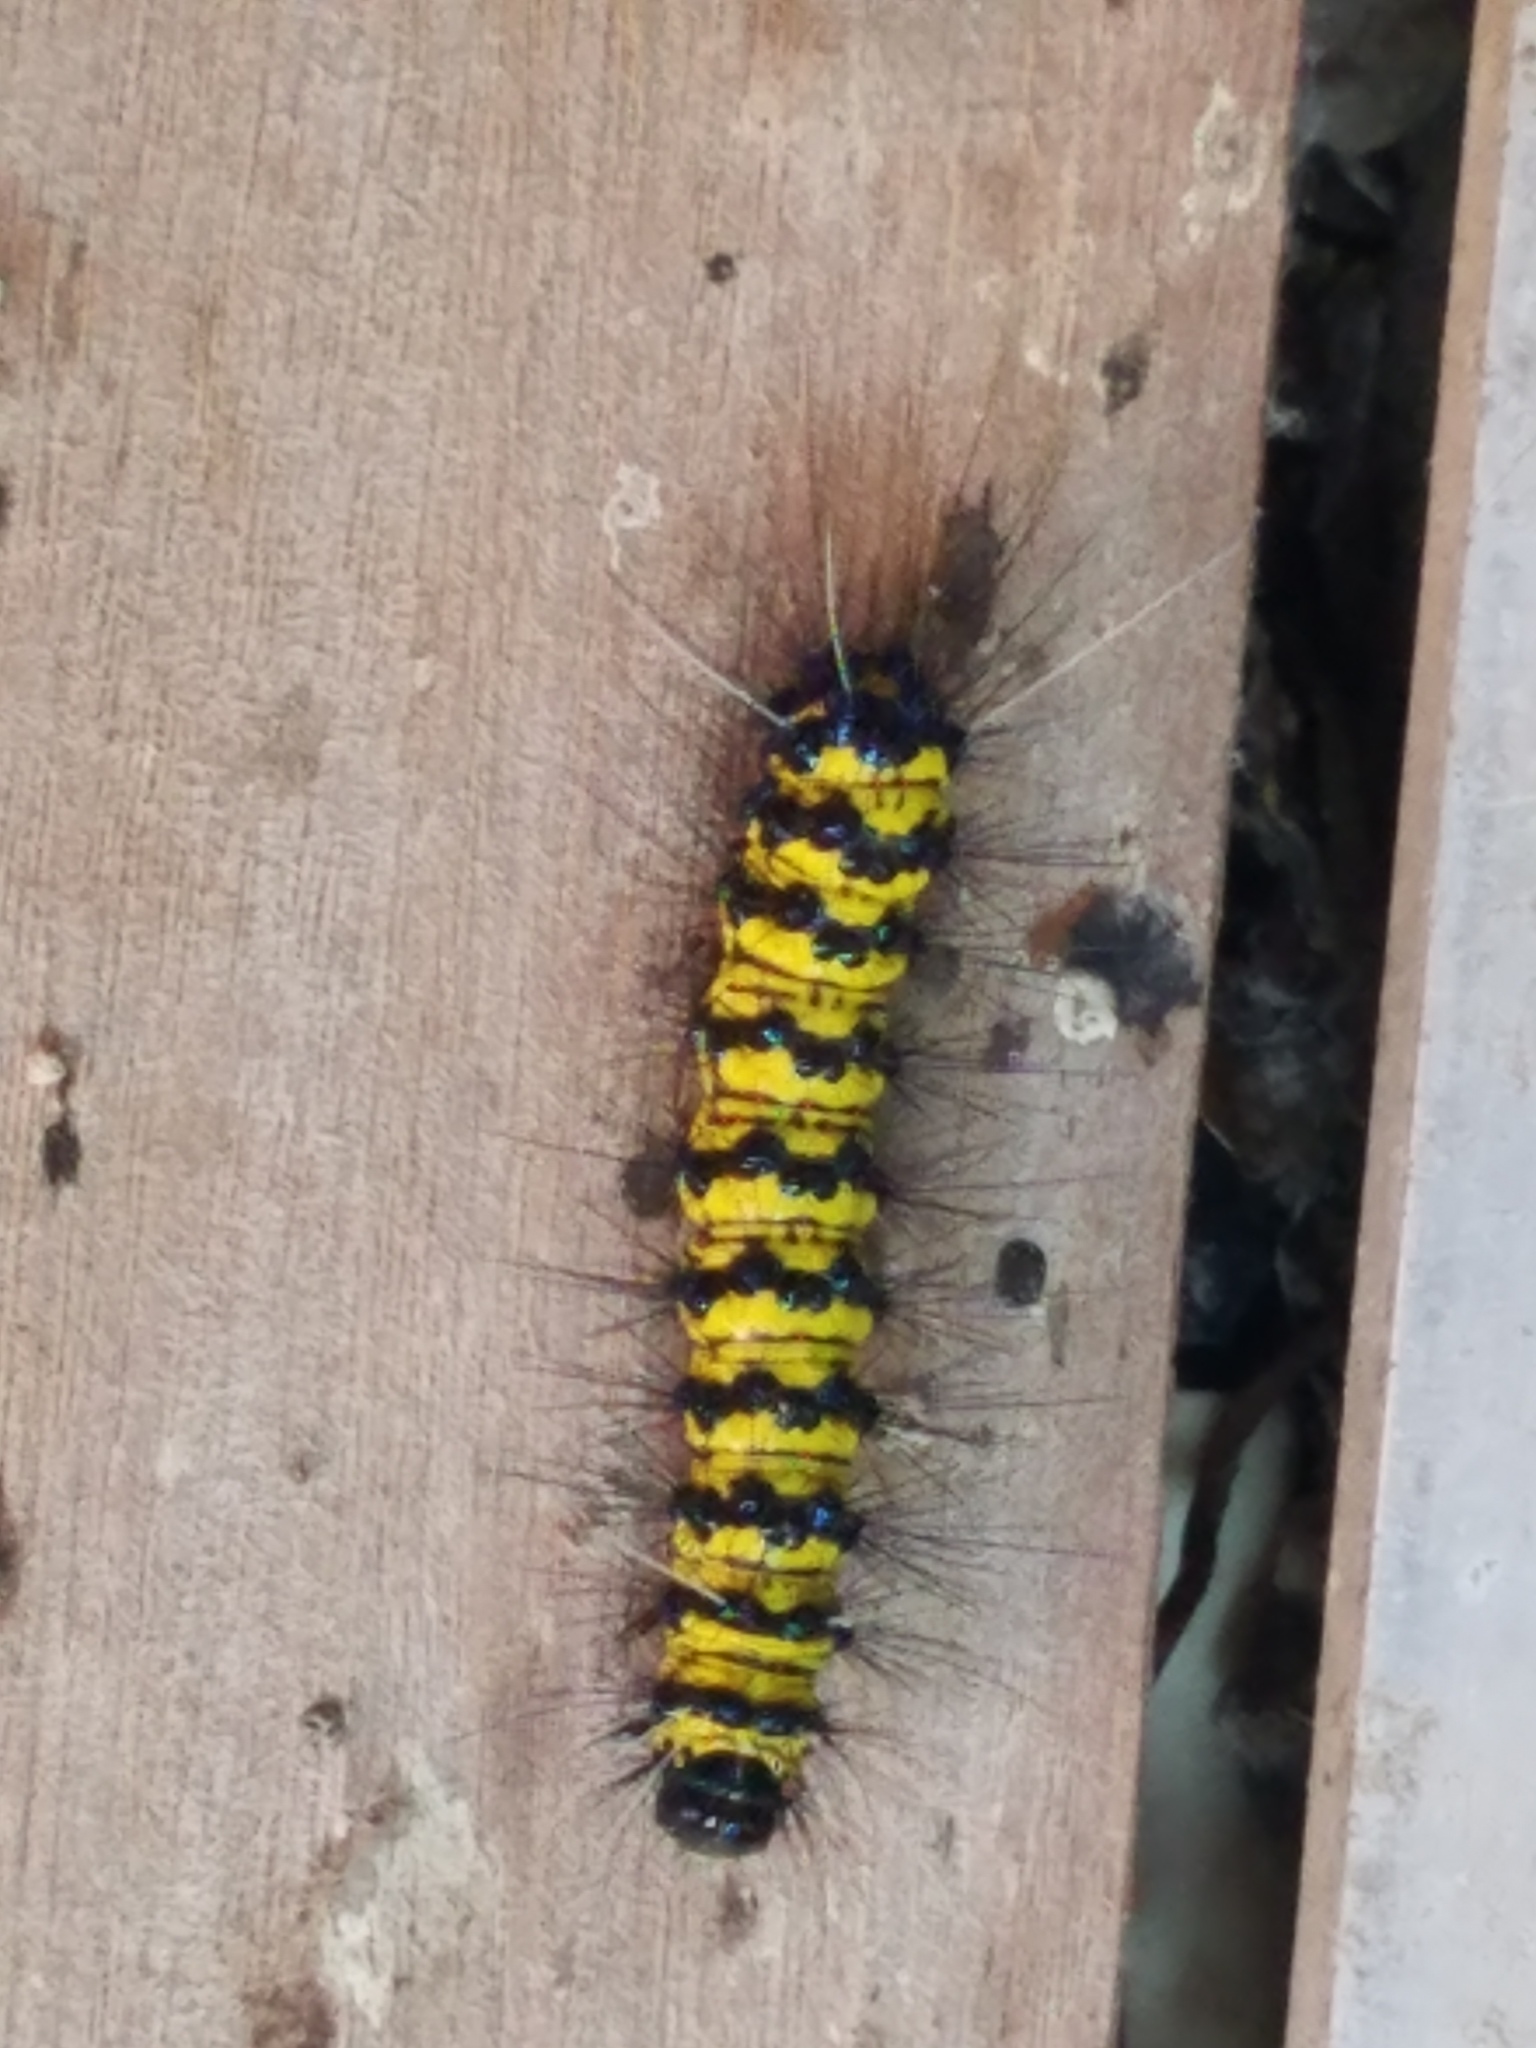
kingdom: Animalia
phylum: Arthropoda
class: Insecta
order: Lepidoptera
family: Erebidae
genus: Phaloesia
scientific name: Phaloesia saucia
